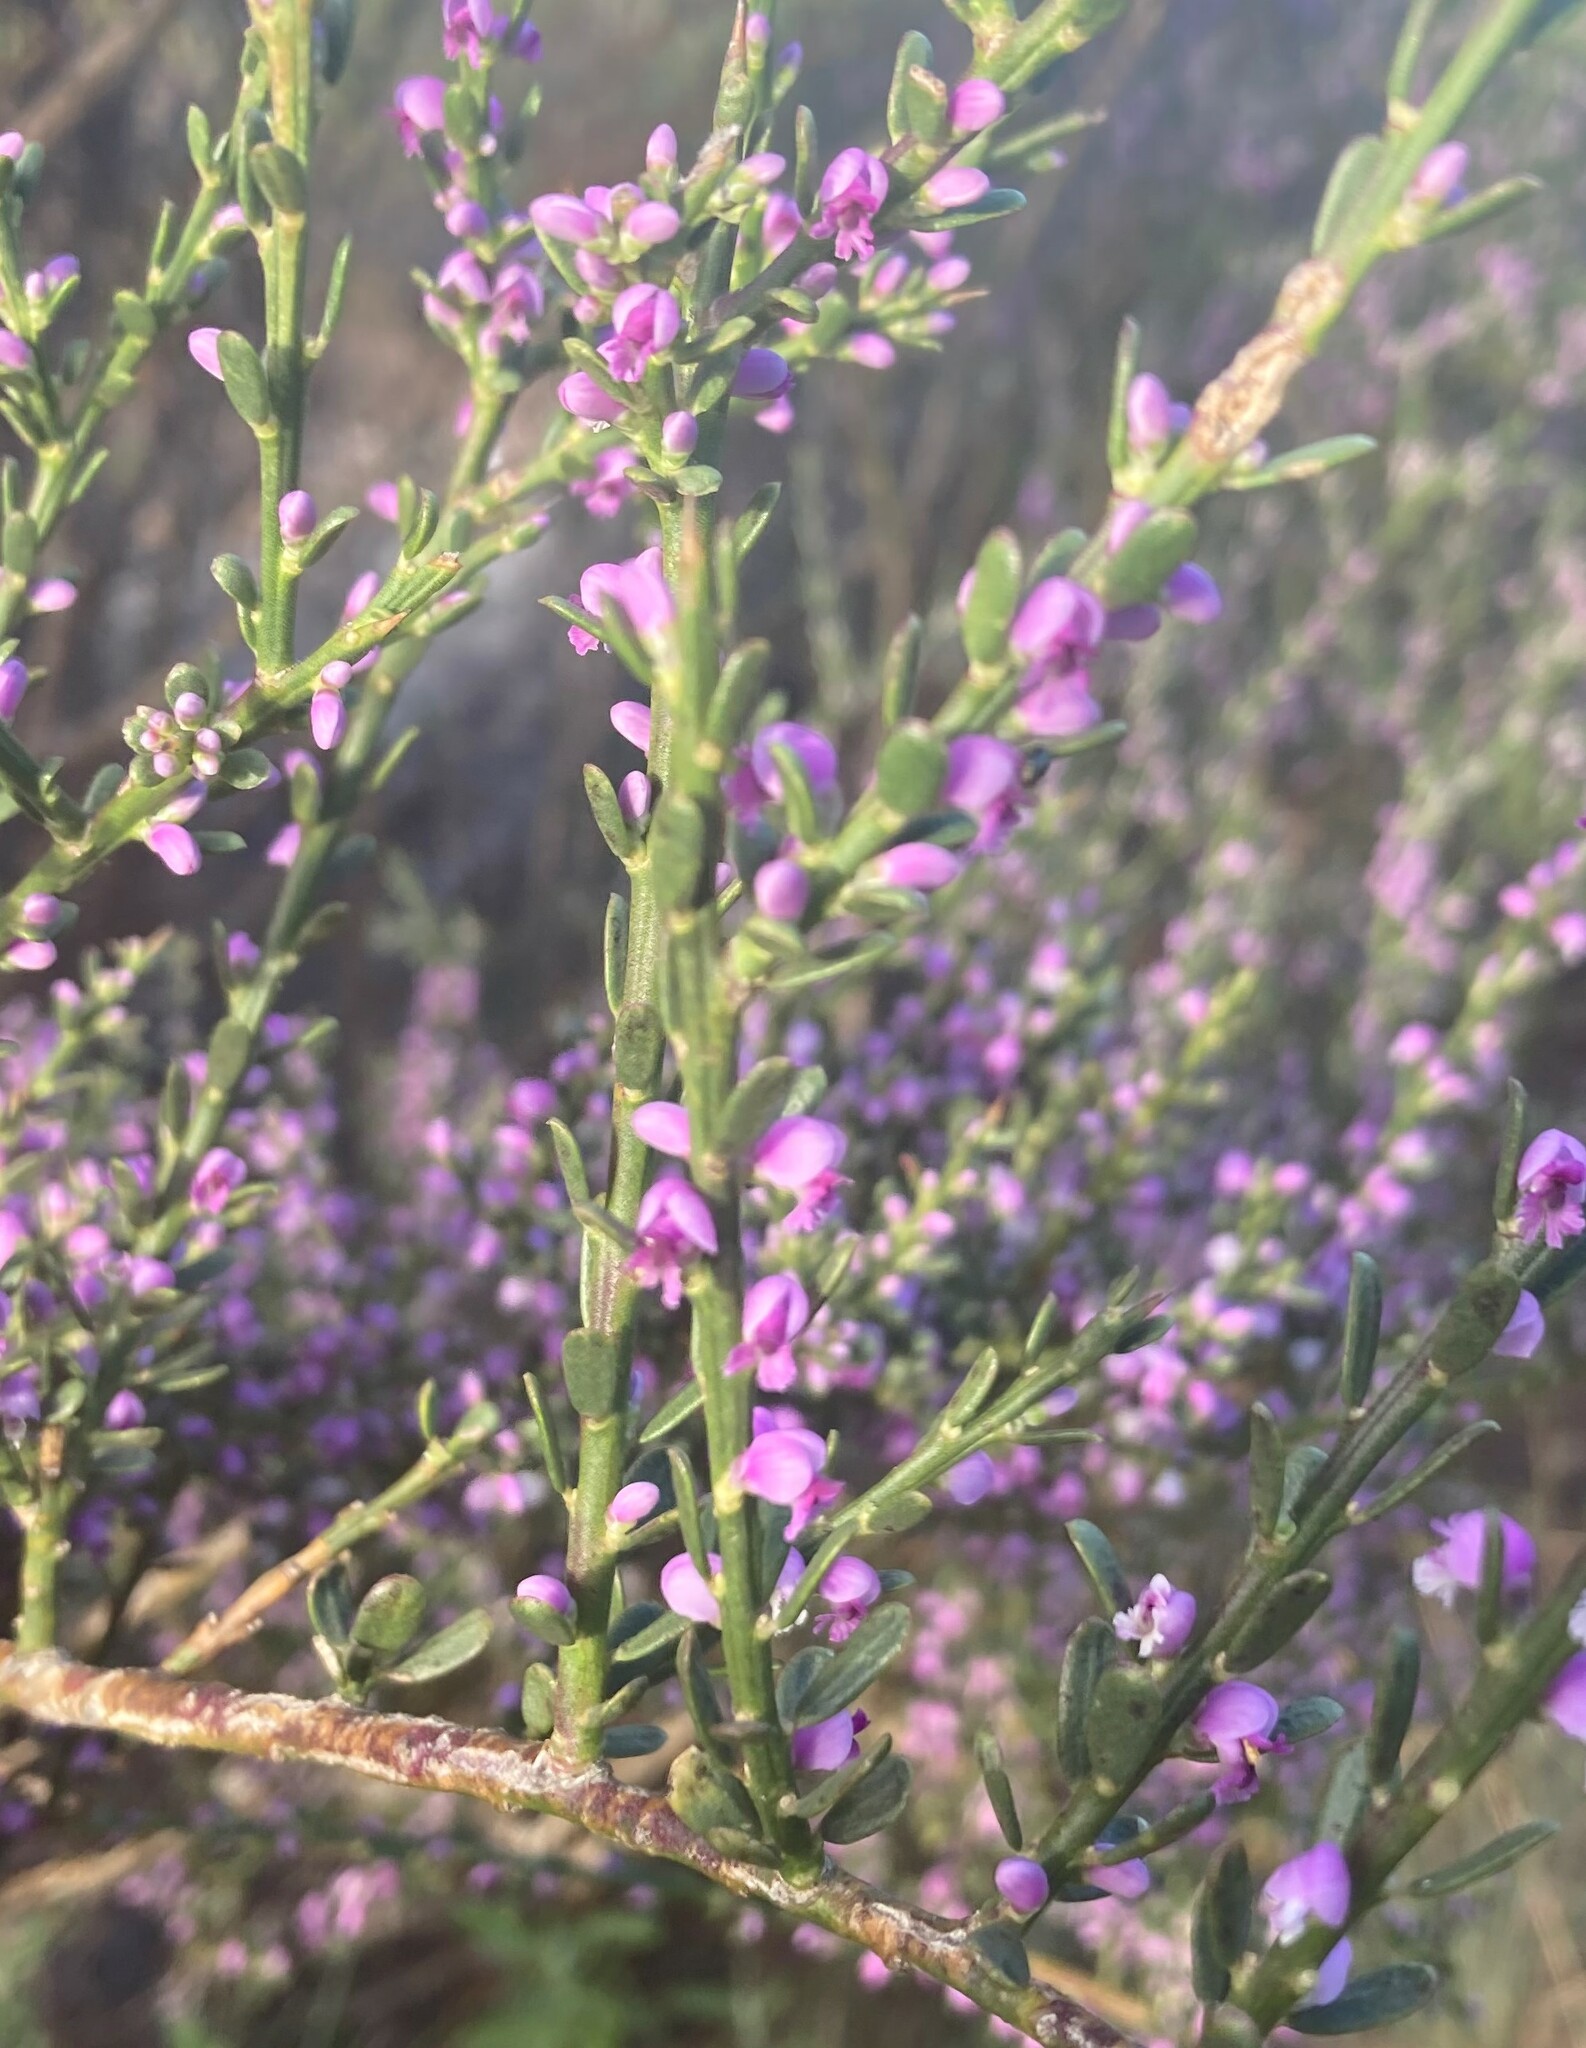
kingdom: Plantae
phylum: Tracheophyta
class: Magnoliopsida
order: Fabales
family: Polygalaceae
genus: Muraltia
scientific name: Muraltia spinosa
